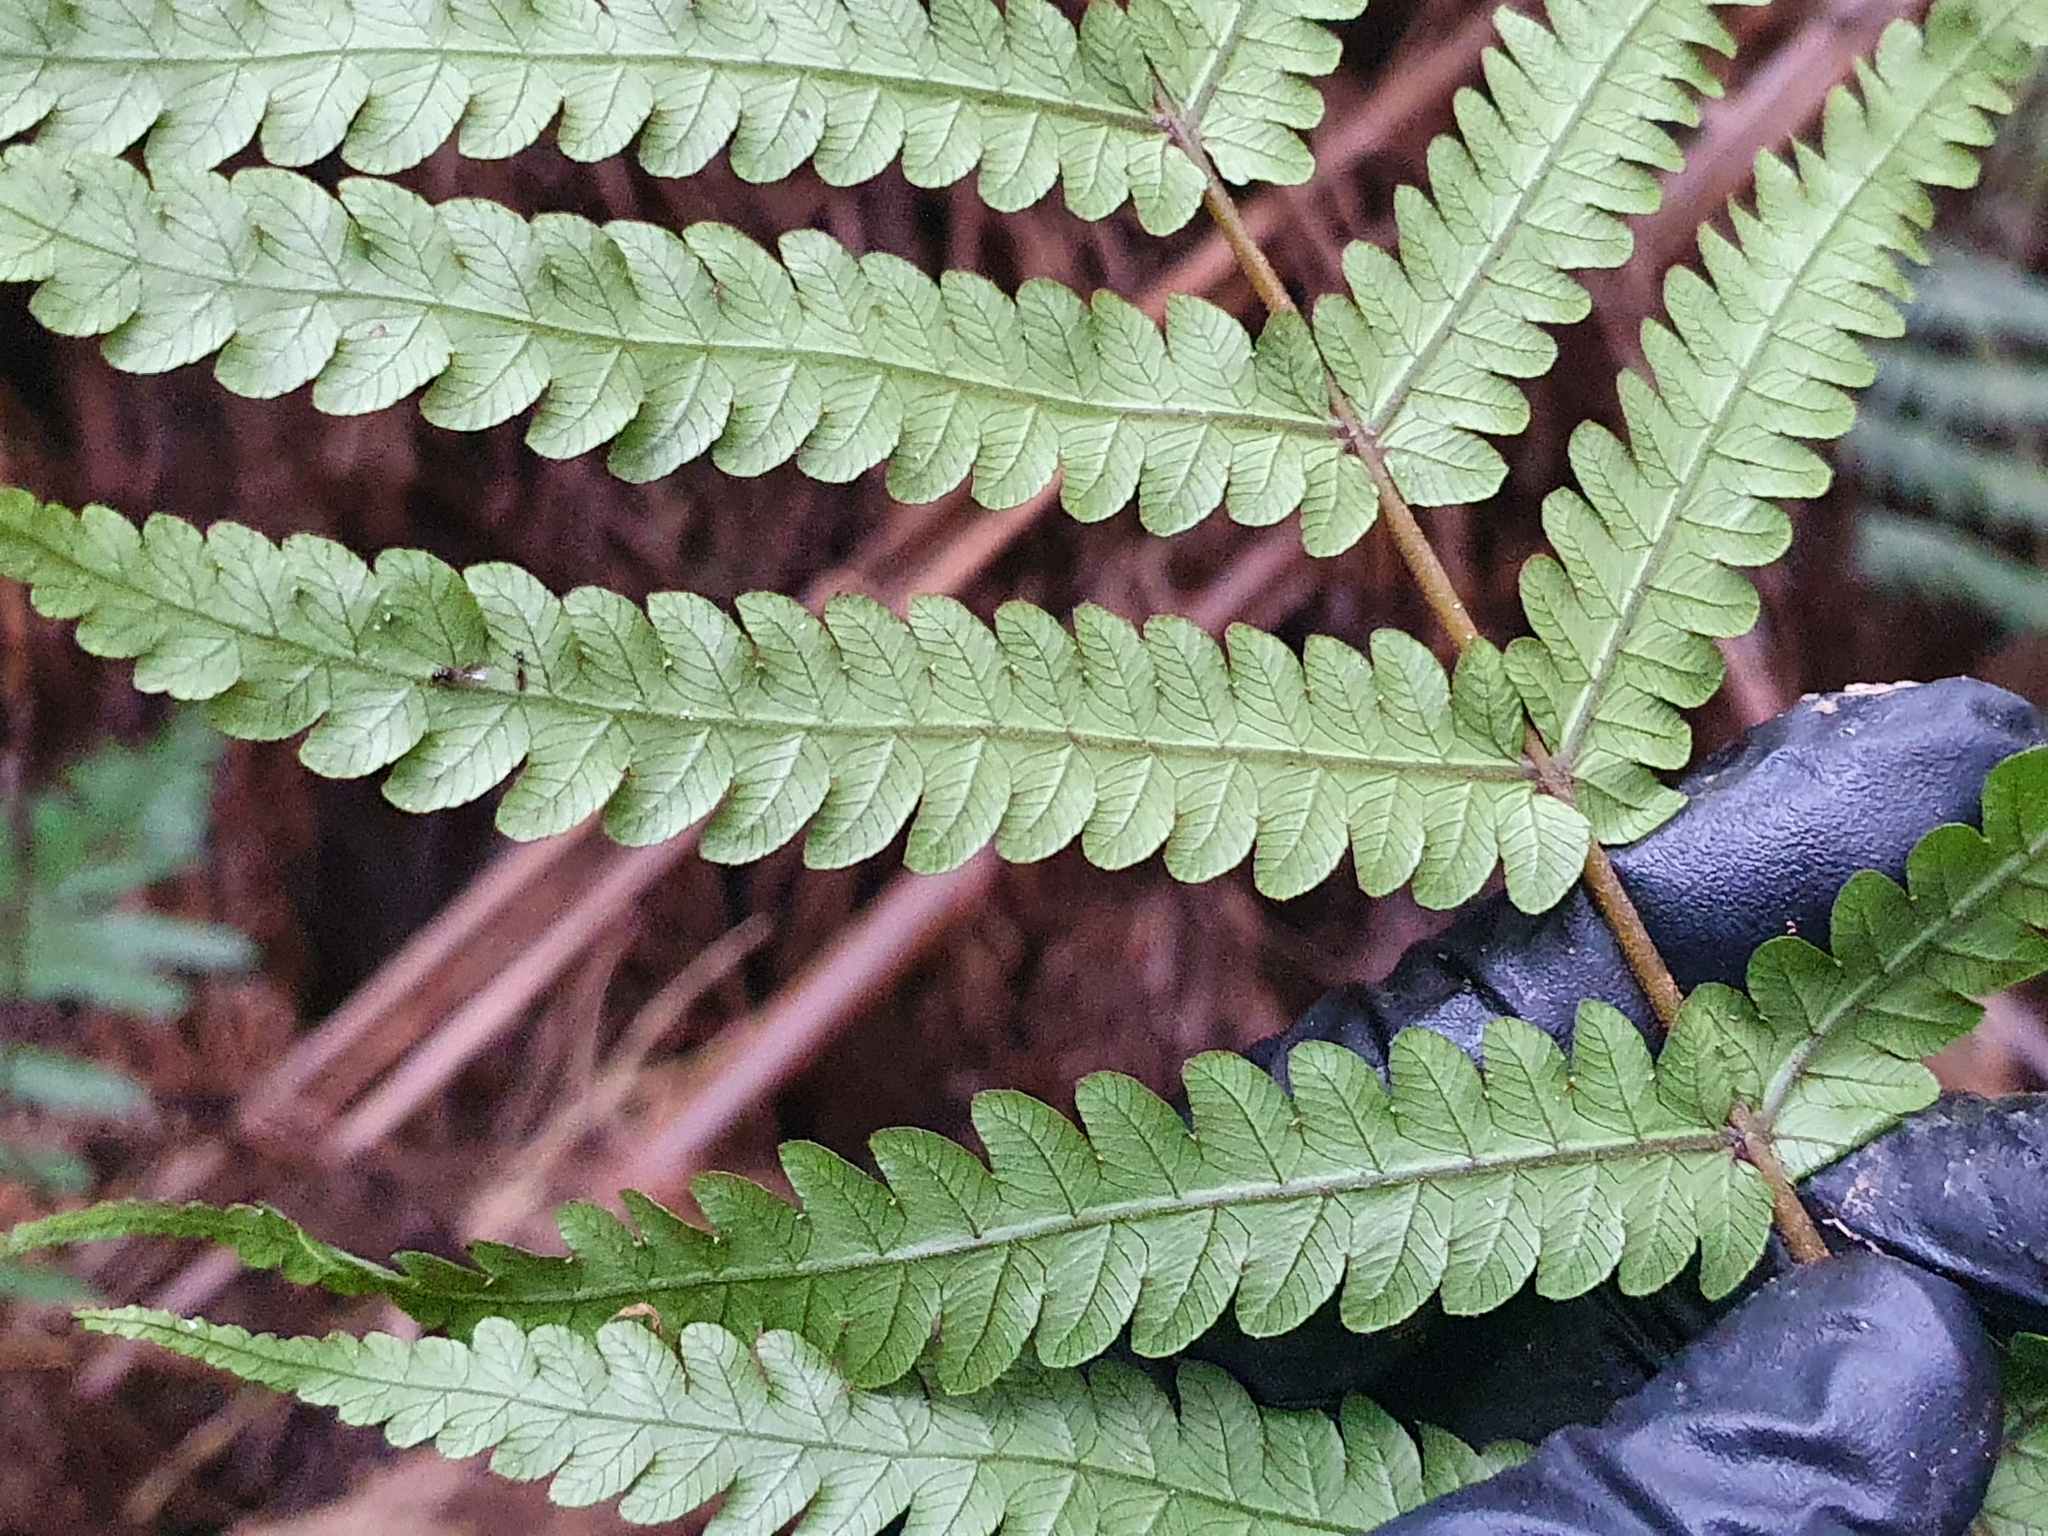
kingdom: Plantae
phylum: Tracheophyta
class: Polypodiopsida
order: Polypodiales
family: Thelypteridaceae
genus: Pakau
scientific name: Pakau pennigera
